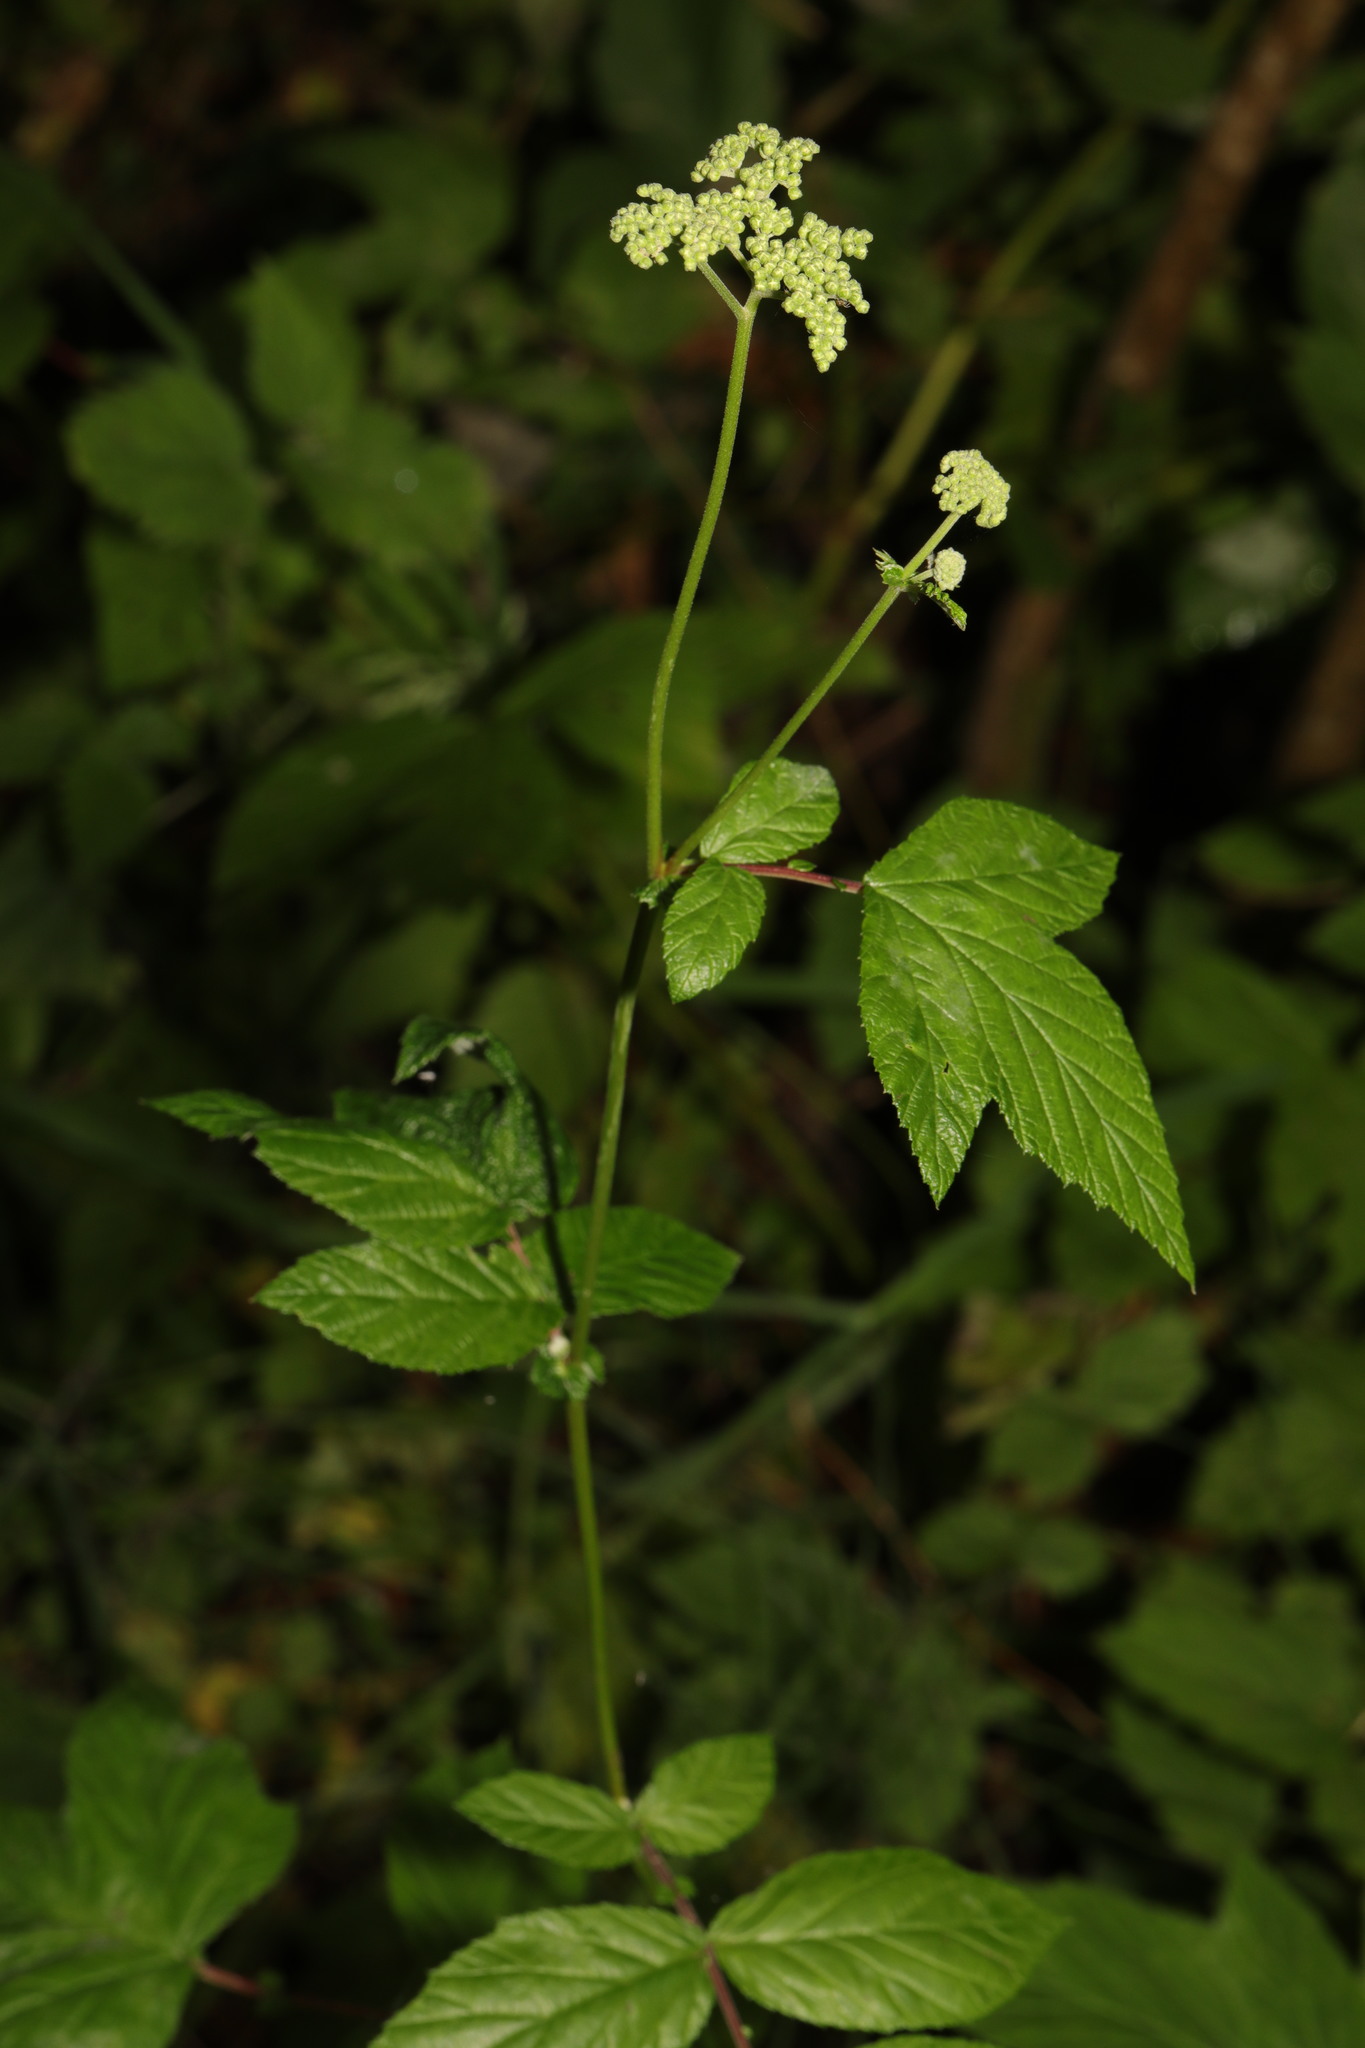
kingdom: Plantae
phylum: Tracheophyta
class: Magnoliopsida
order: Rosales
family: Rosaceae
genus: Filipendula
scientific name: Filipendula ulmaria
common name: Meadowsweet
